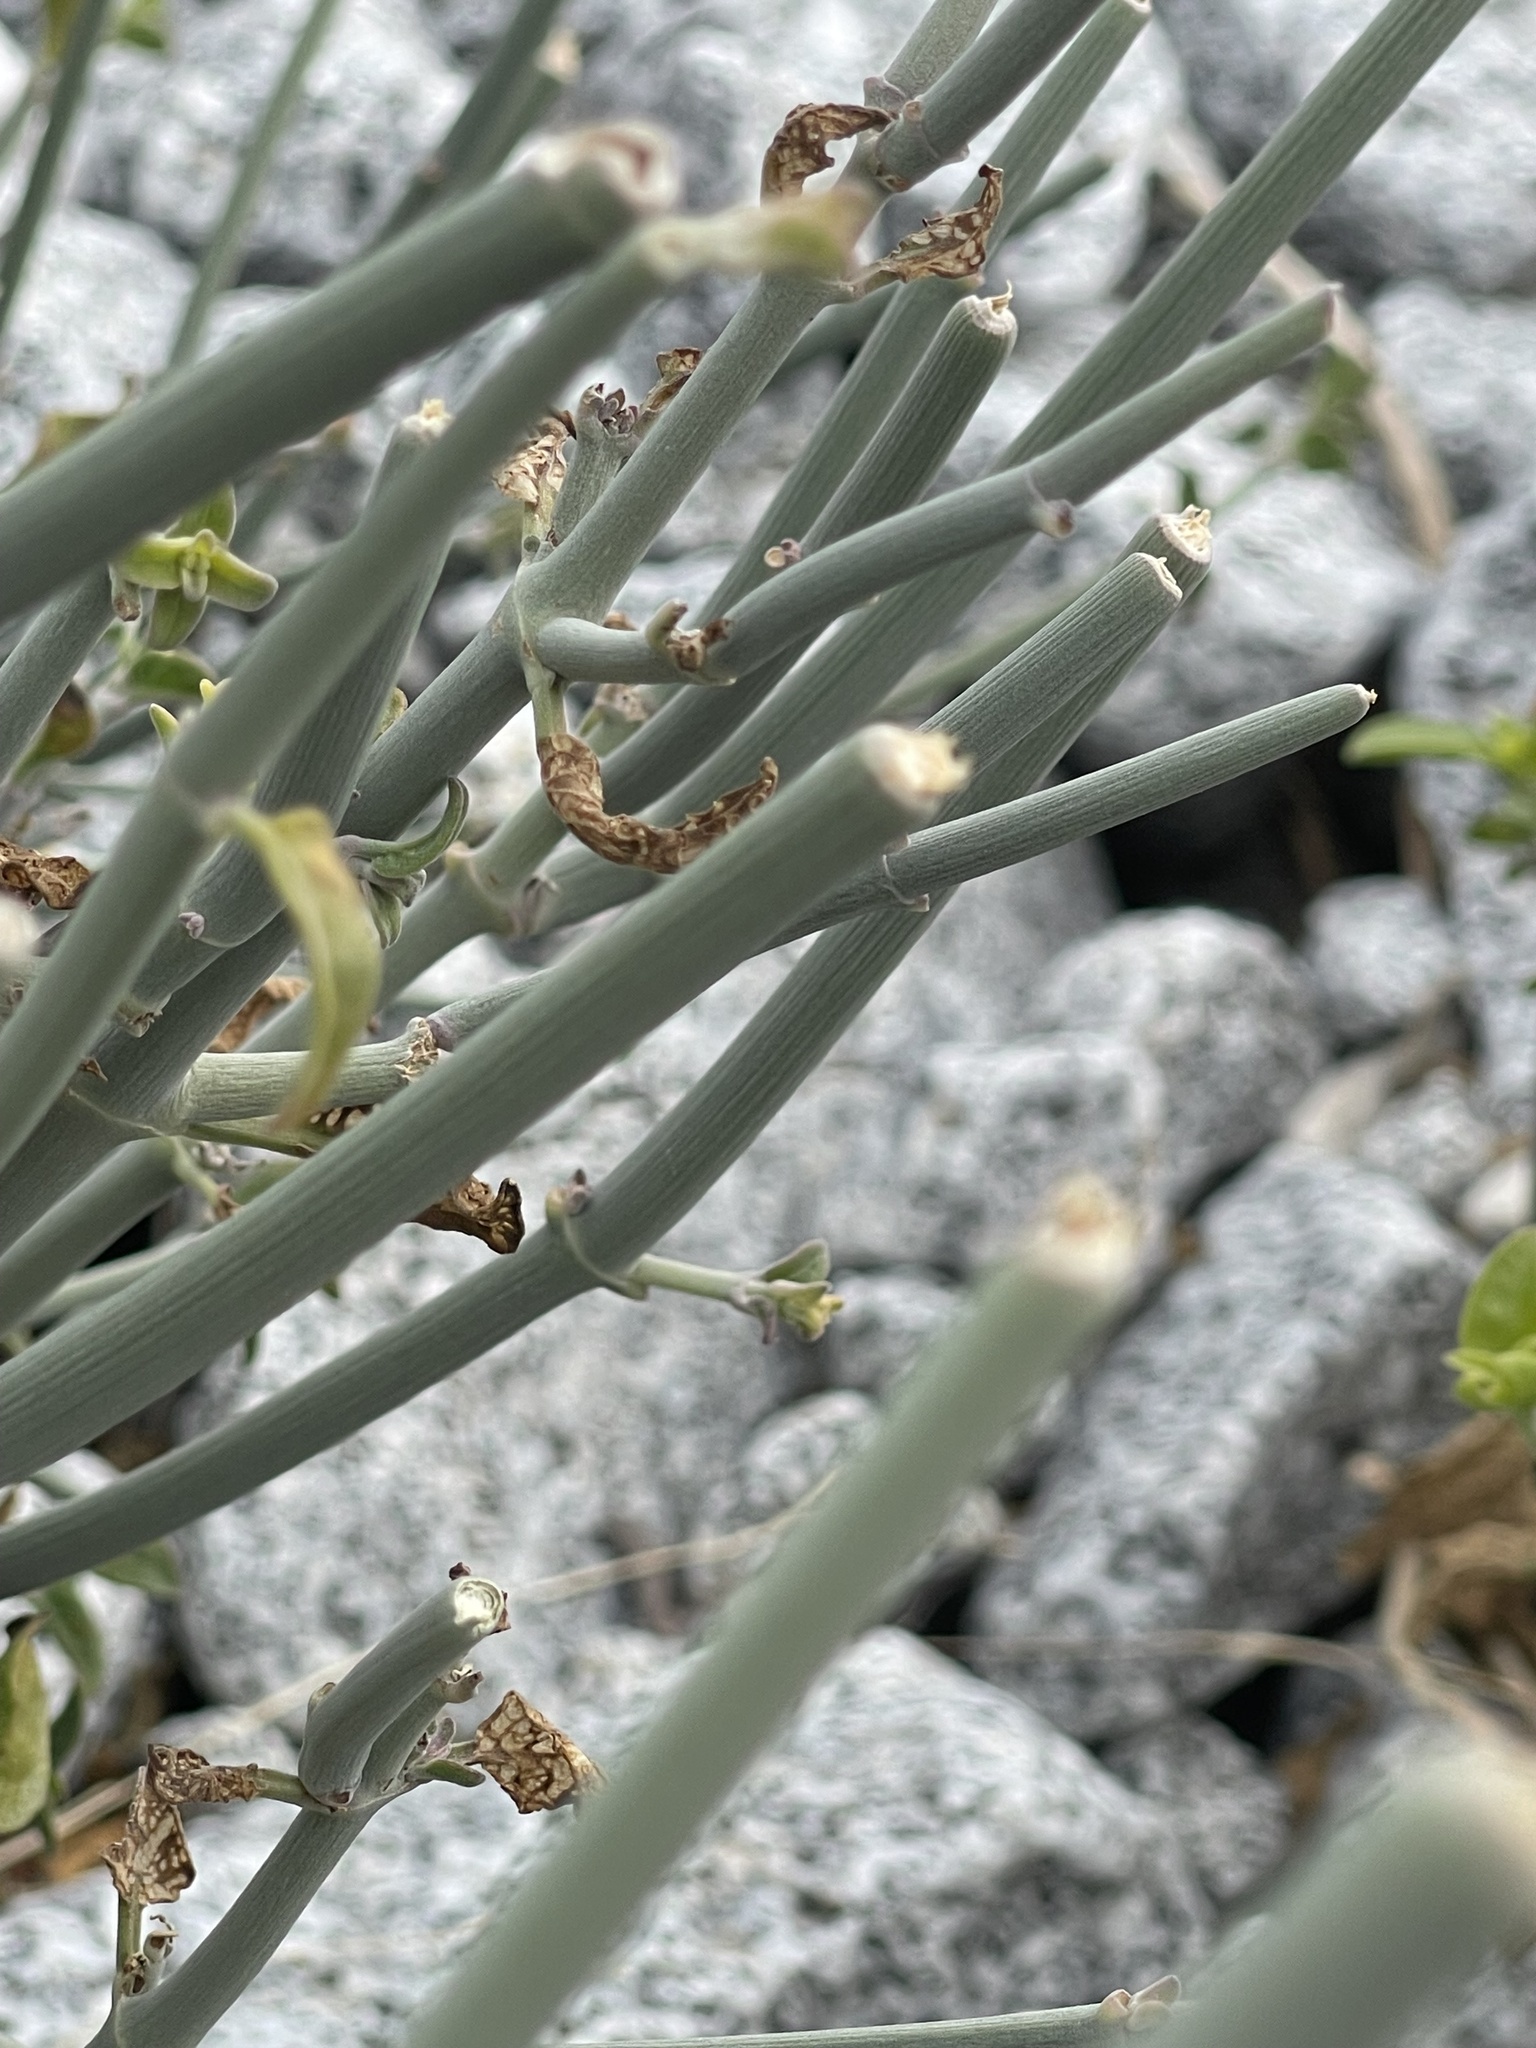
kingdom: Plantae
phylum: Tracheophyta
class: Magnoliopsida
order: Lamiales
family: Acanthaceae
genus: Justicia
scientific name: Justicia californica
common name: Chuparosa-honeysuckle
